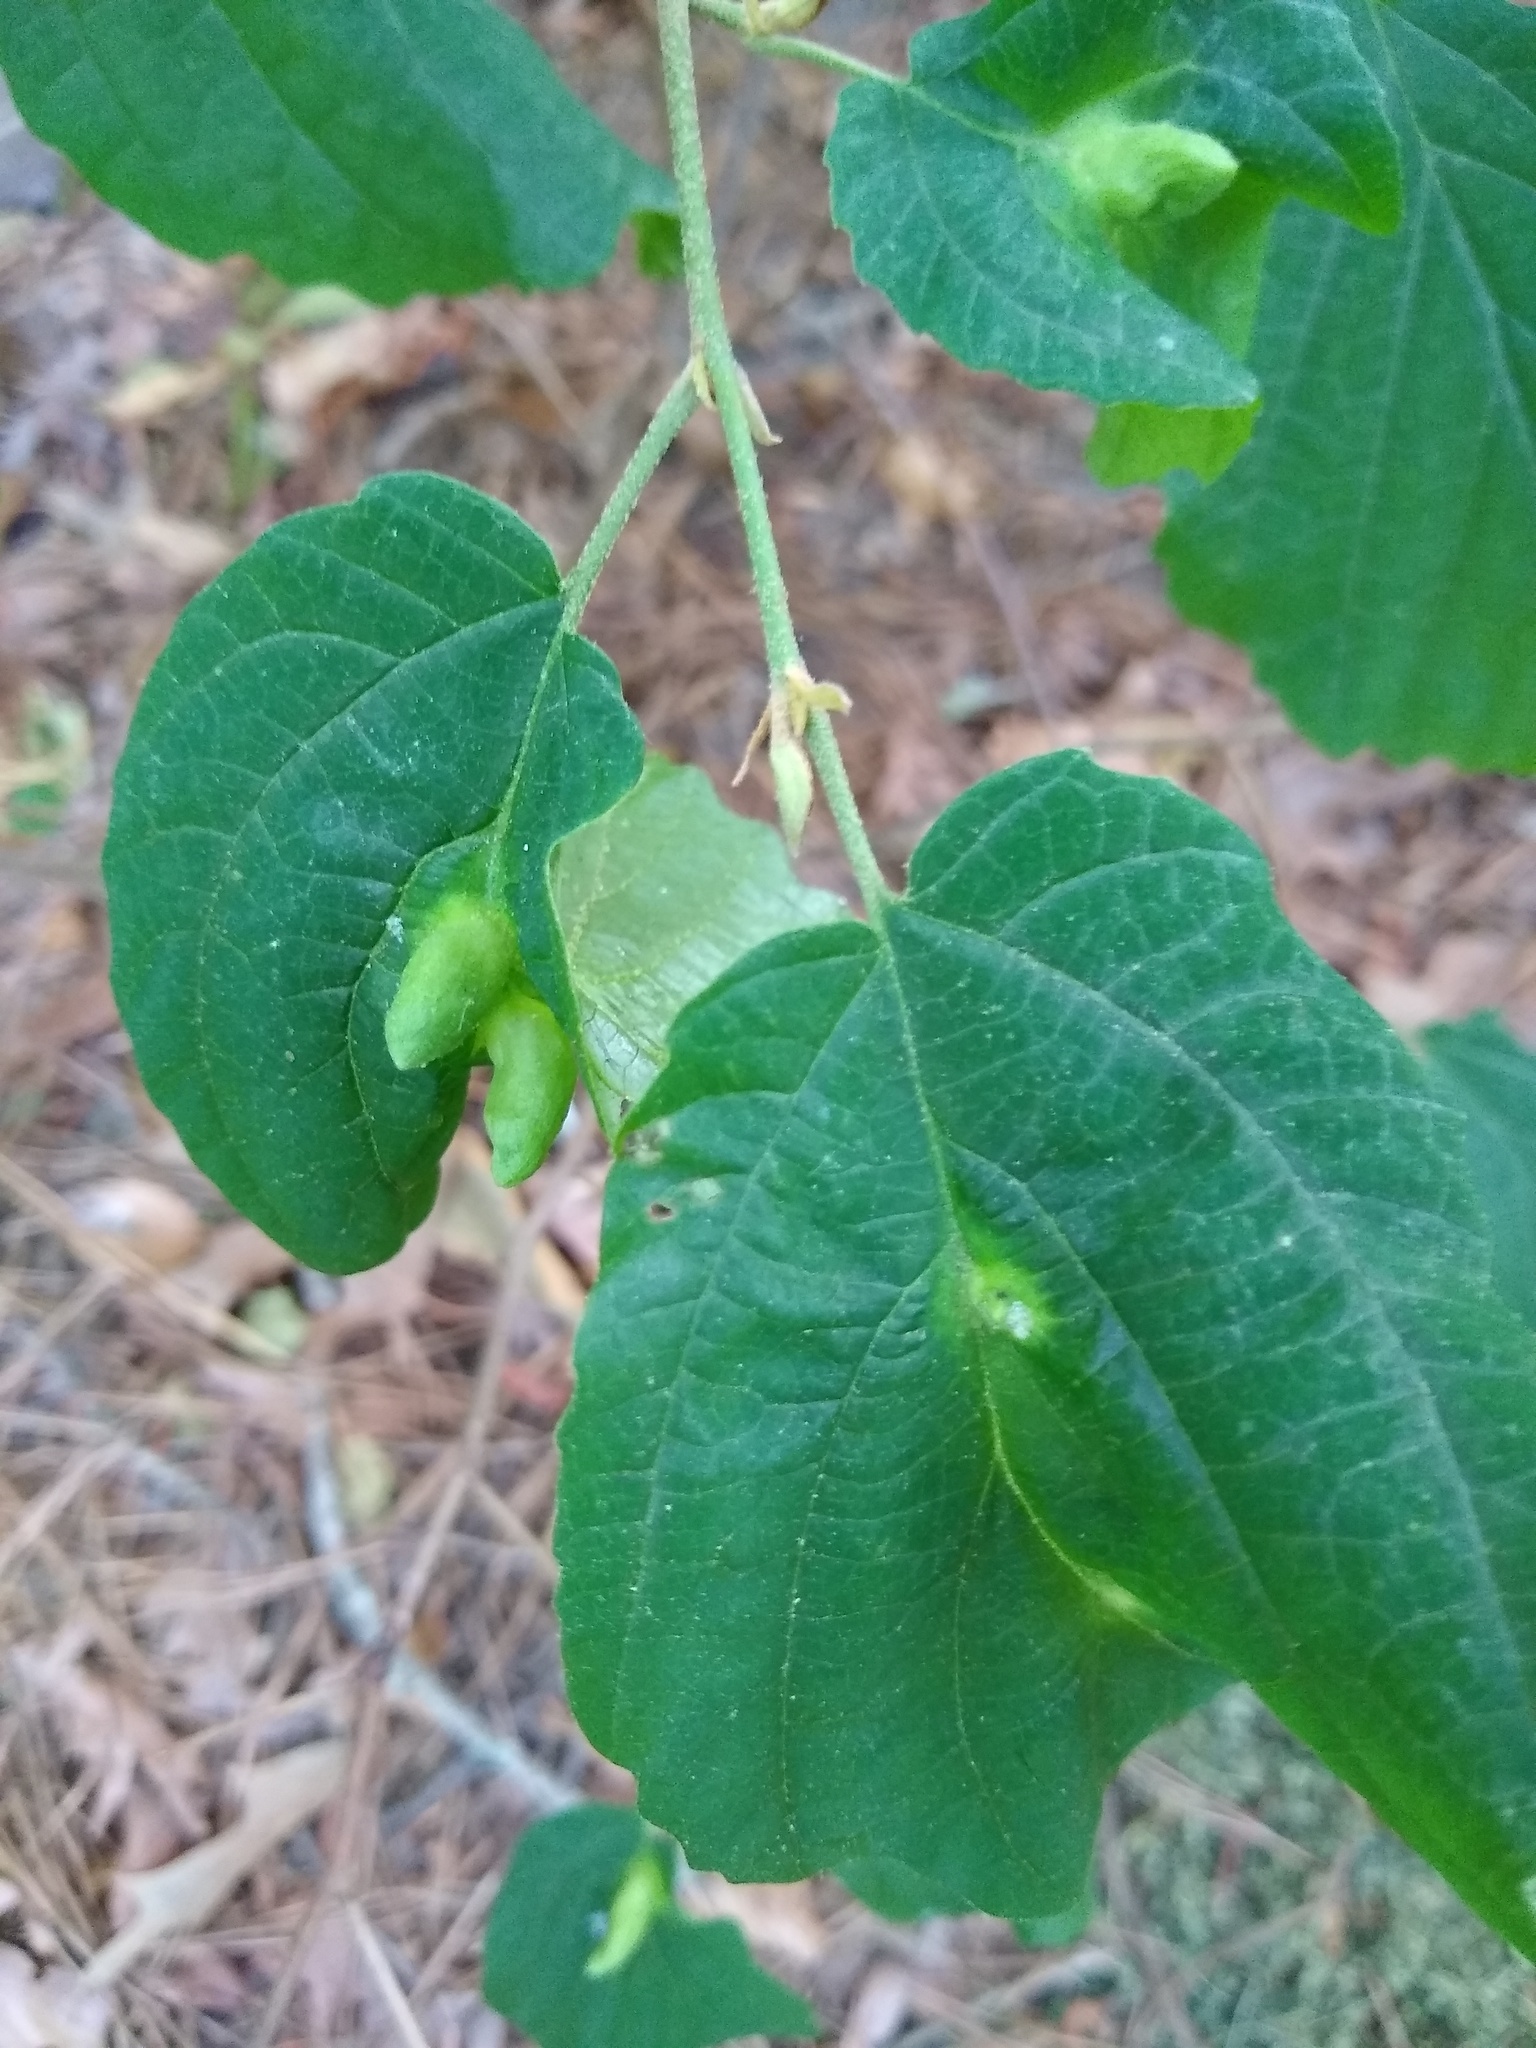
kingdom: Animalia
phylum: Arthropoda
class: Insecta
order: Hemiptera
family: Aphididae
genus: Hormaphis
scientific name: Hormaphis hamamelidis
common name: Witch-hazel cone gall aphid
